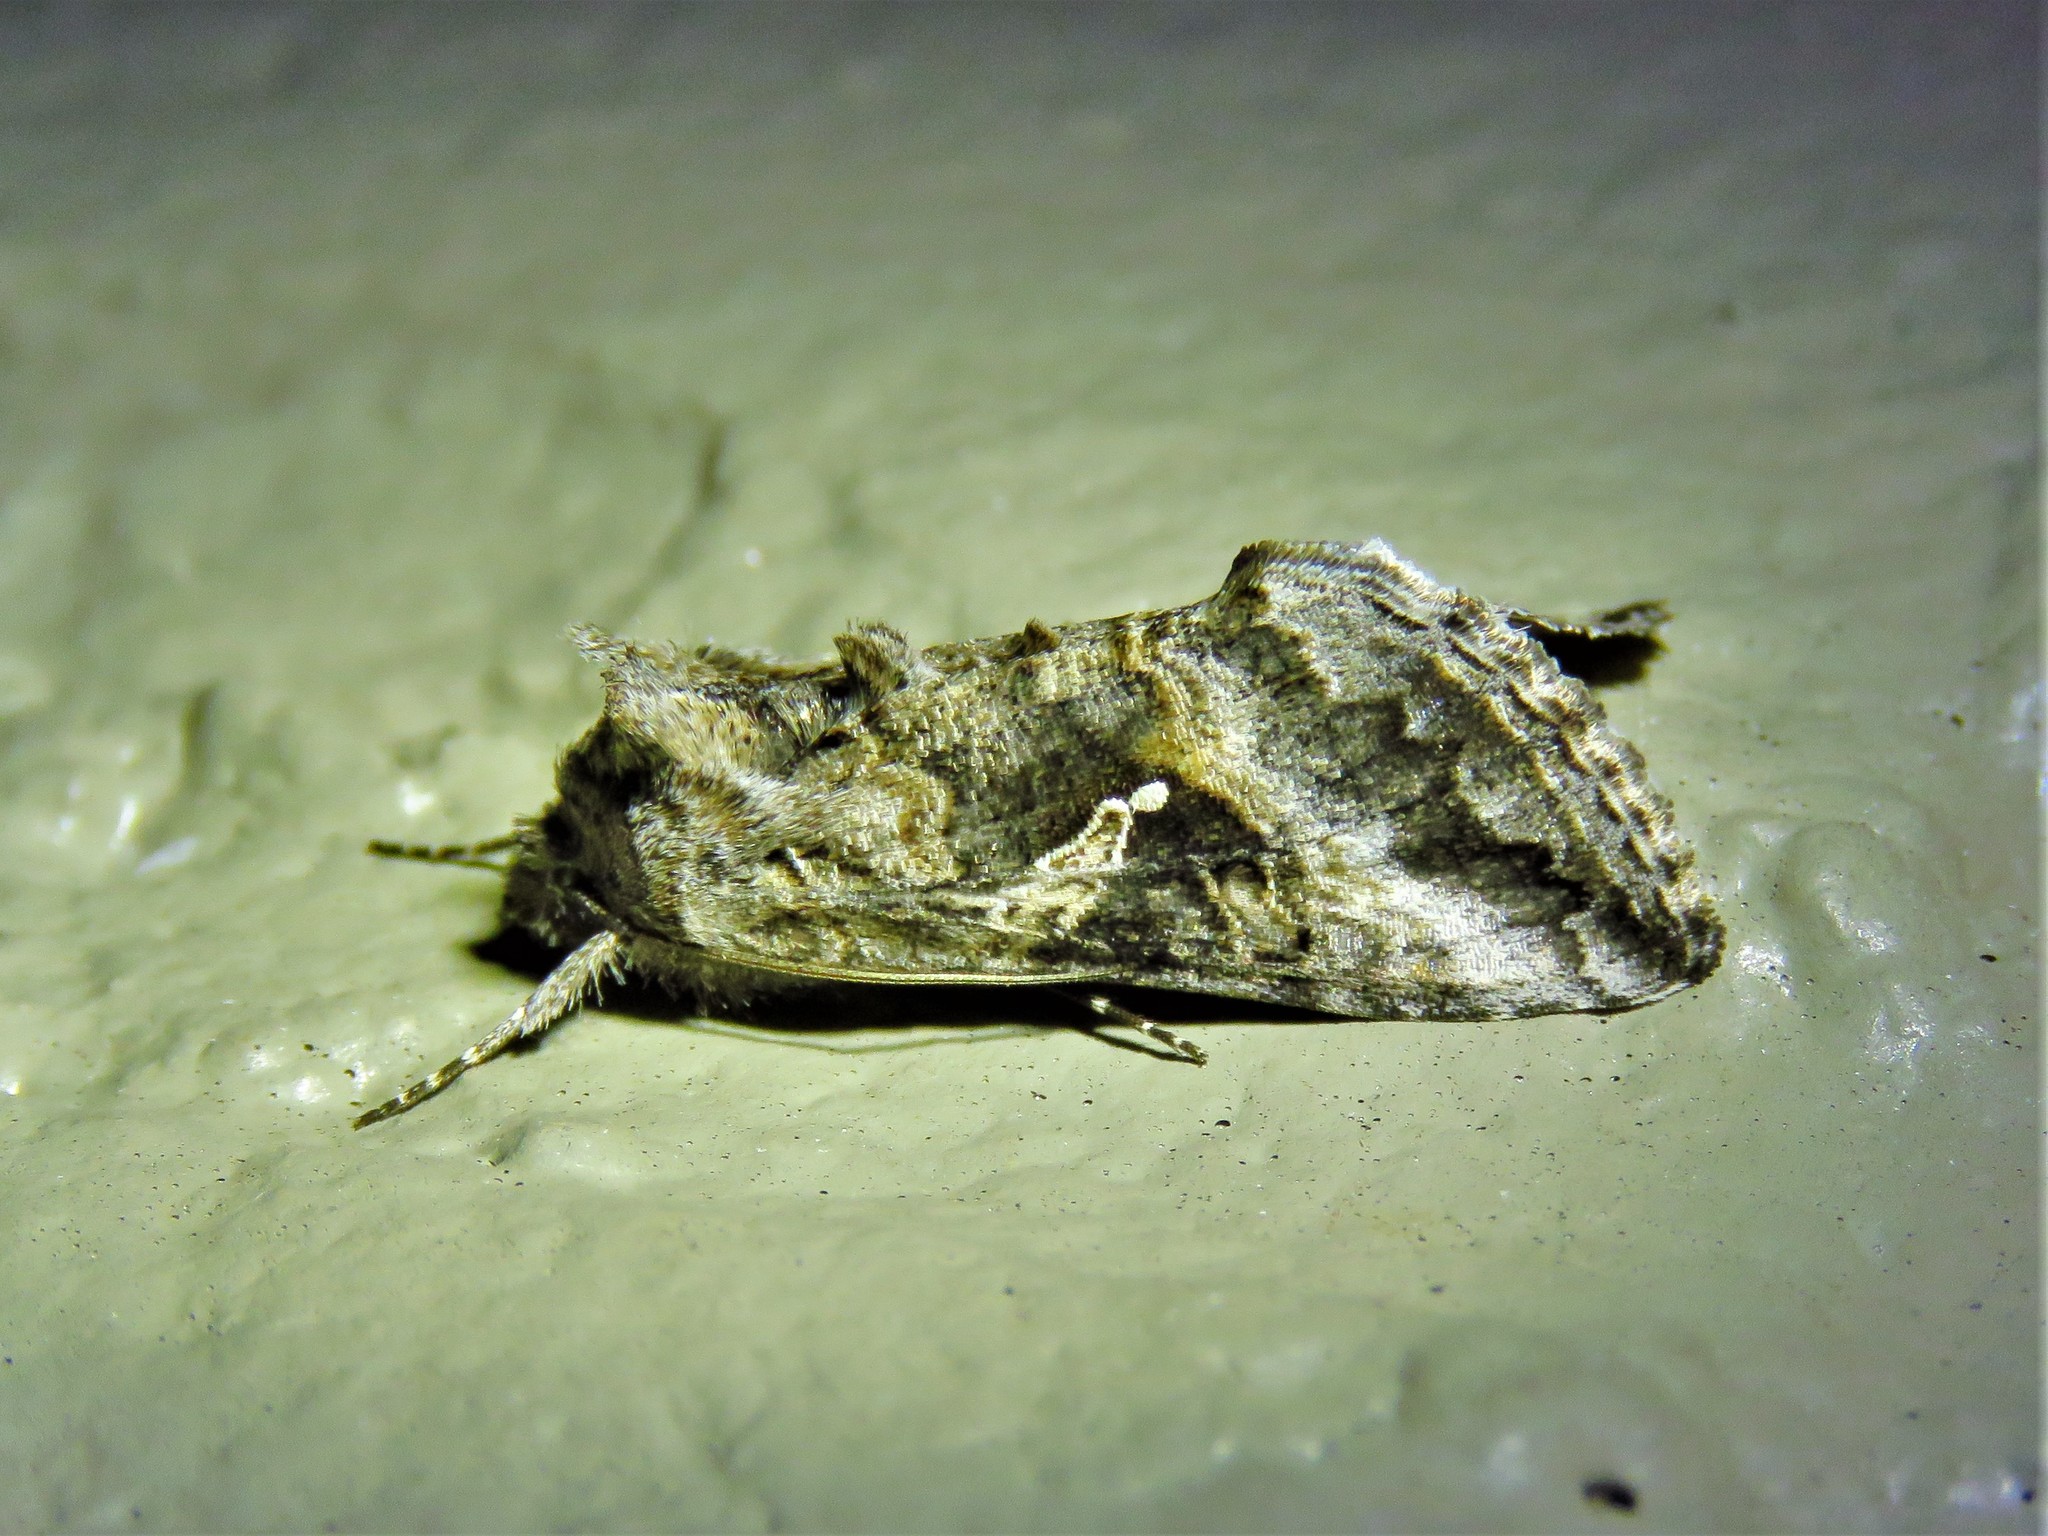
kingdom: Animalia
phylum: Arthropoda
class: Insecta
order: Lepidoptera
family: Noctuidae
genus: Rachiplusia
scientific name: Rachiplusia ou
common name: Gray looper moth
